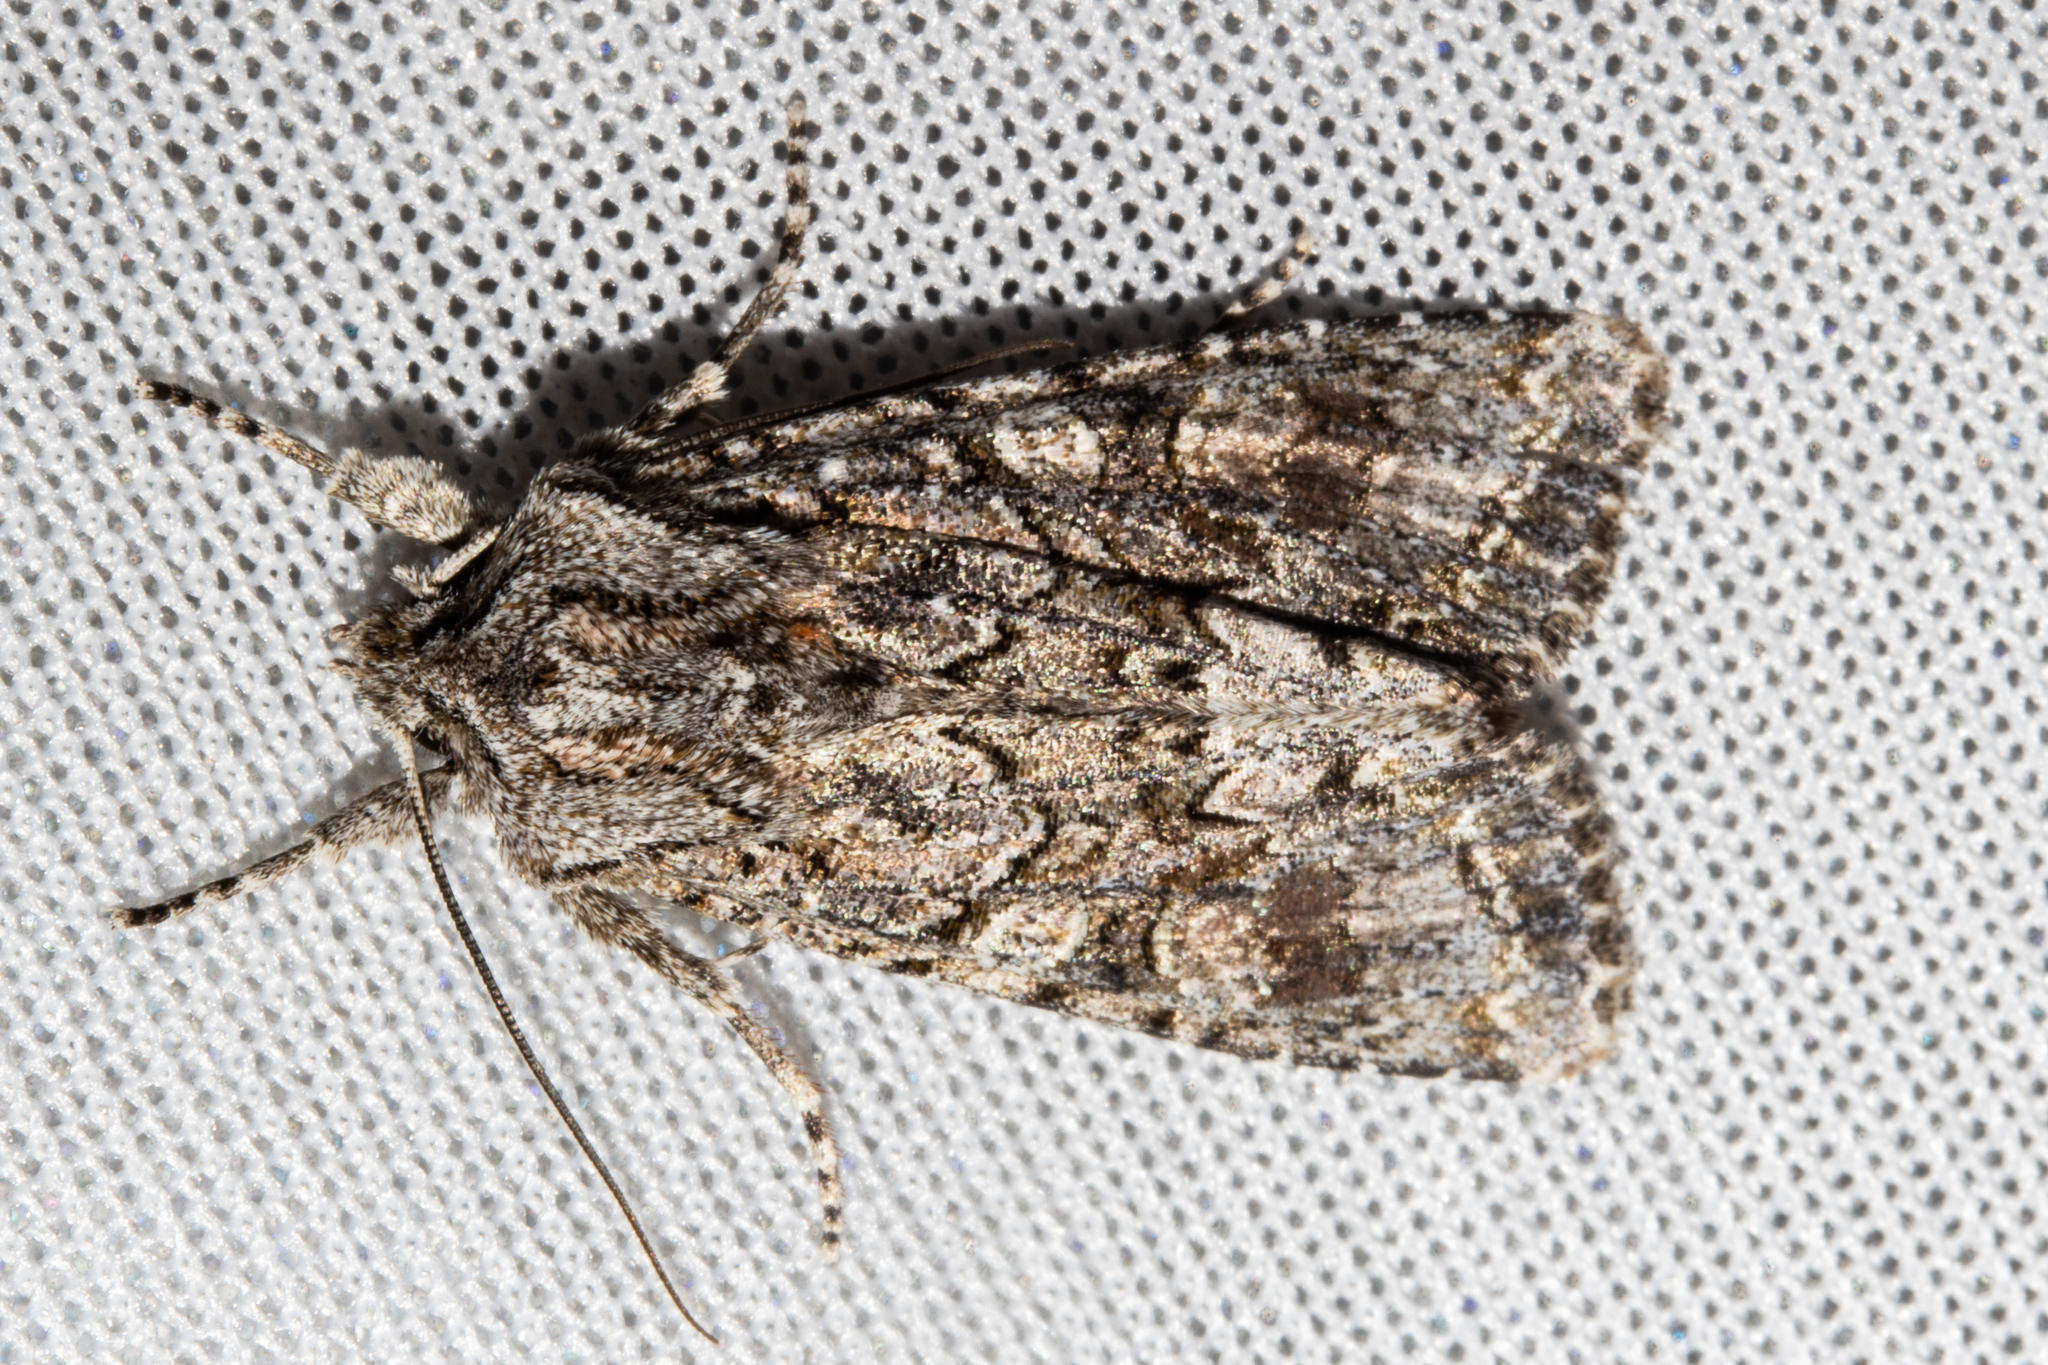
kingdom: Animalia
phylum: Arthropoda
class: Insecta
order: Lepidoptera
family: Noctuidae
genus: Ichneutica
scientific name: Ichneutica mutans
